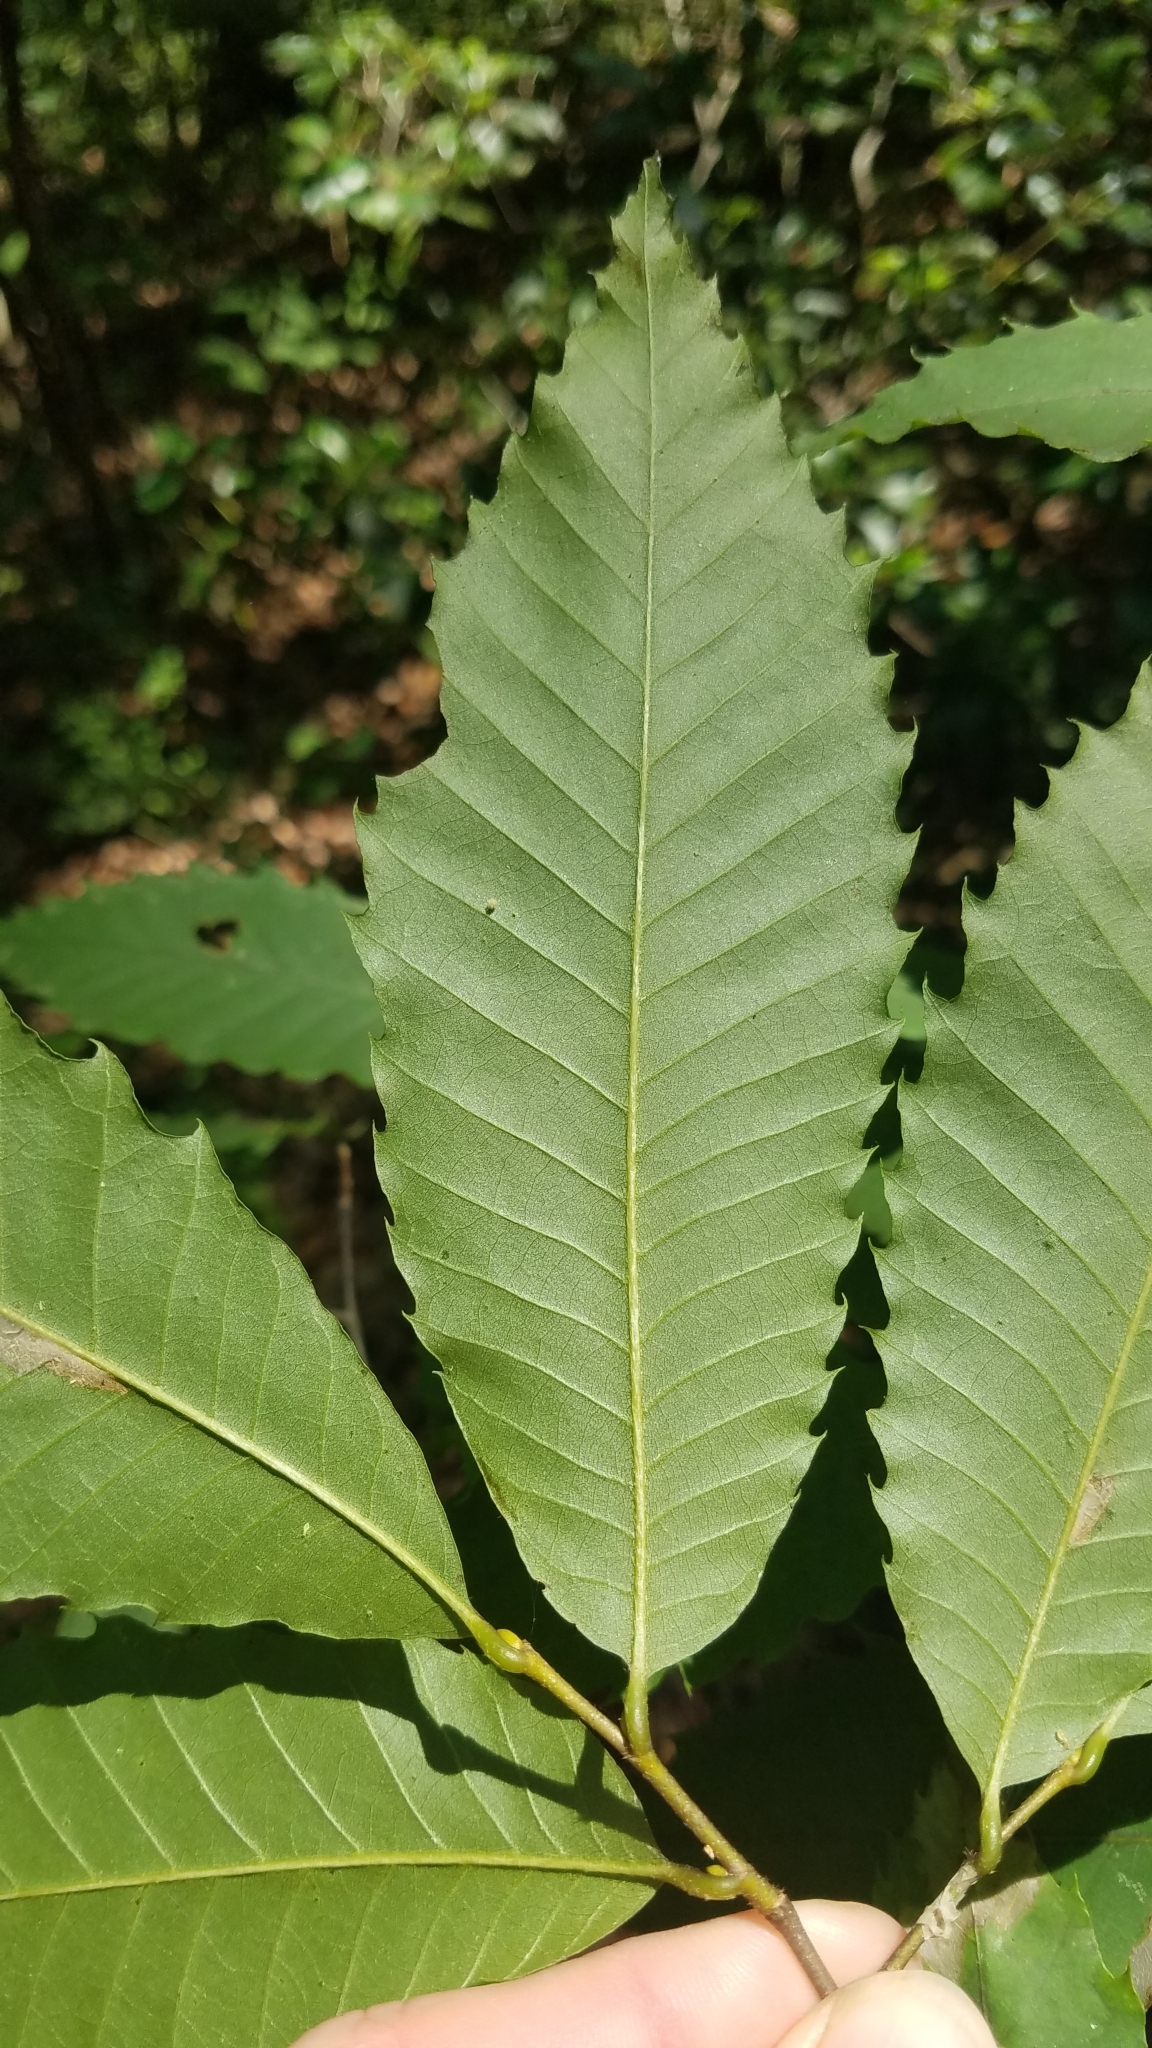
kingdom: Plantae
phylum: Tracheophyta
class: Magnoliopsida
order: Fagales
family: Fagaceae
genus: Castanea
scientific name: Castanea dentata
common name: American chestnut
